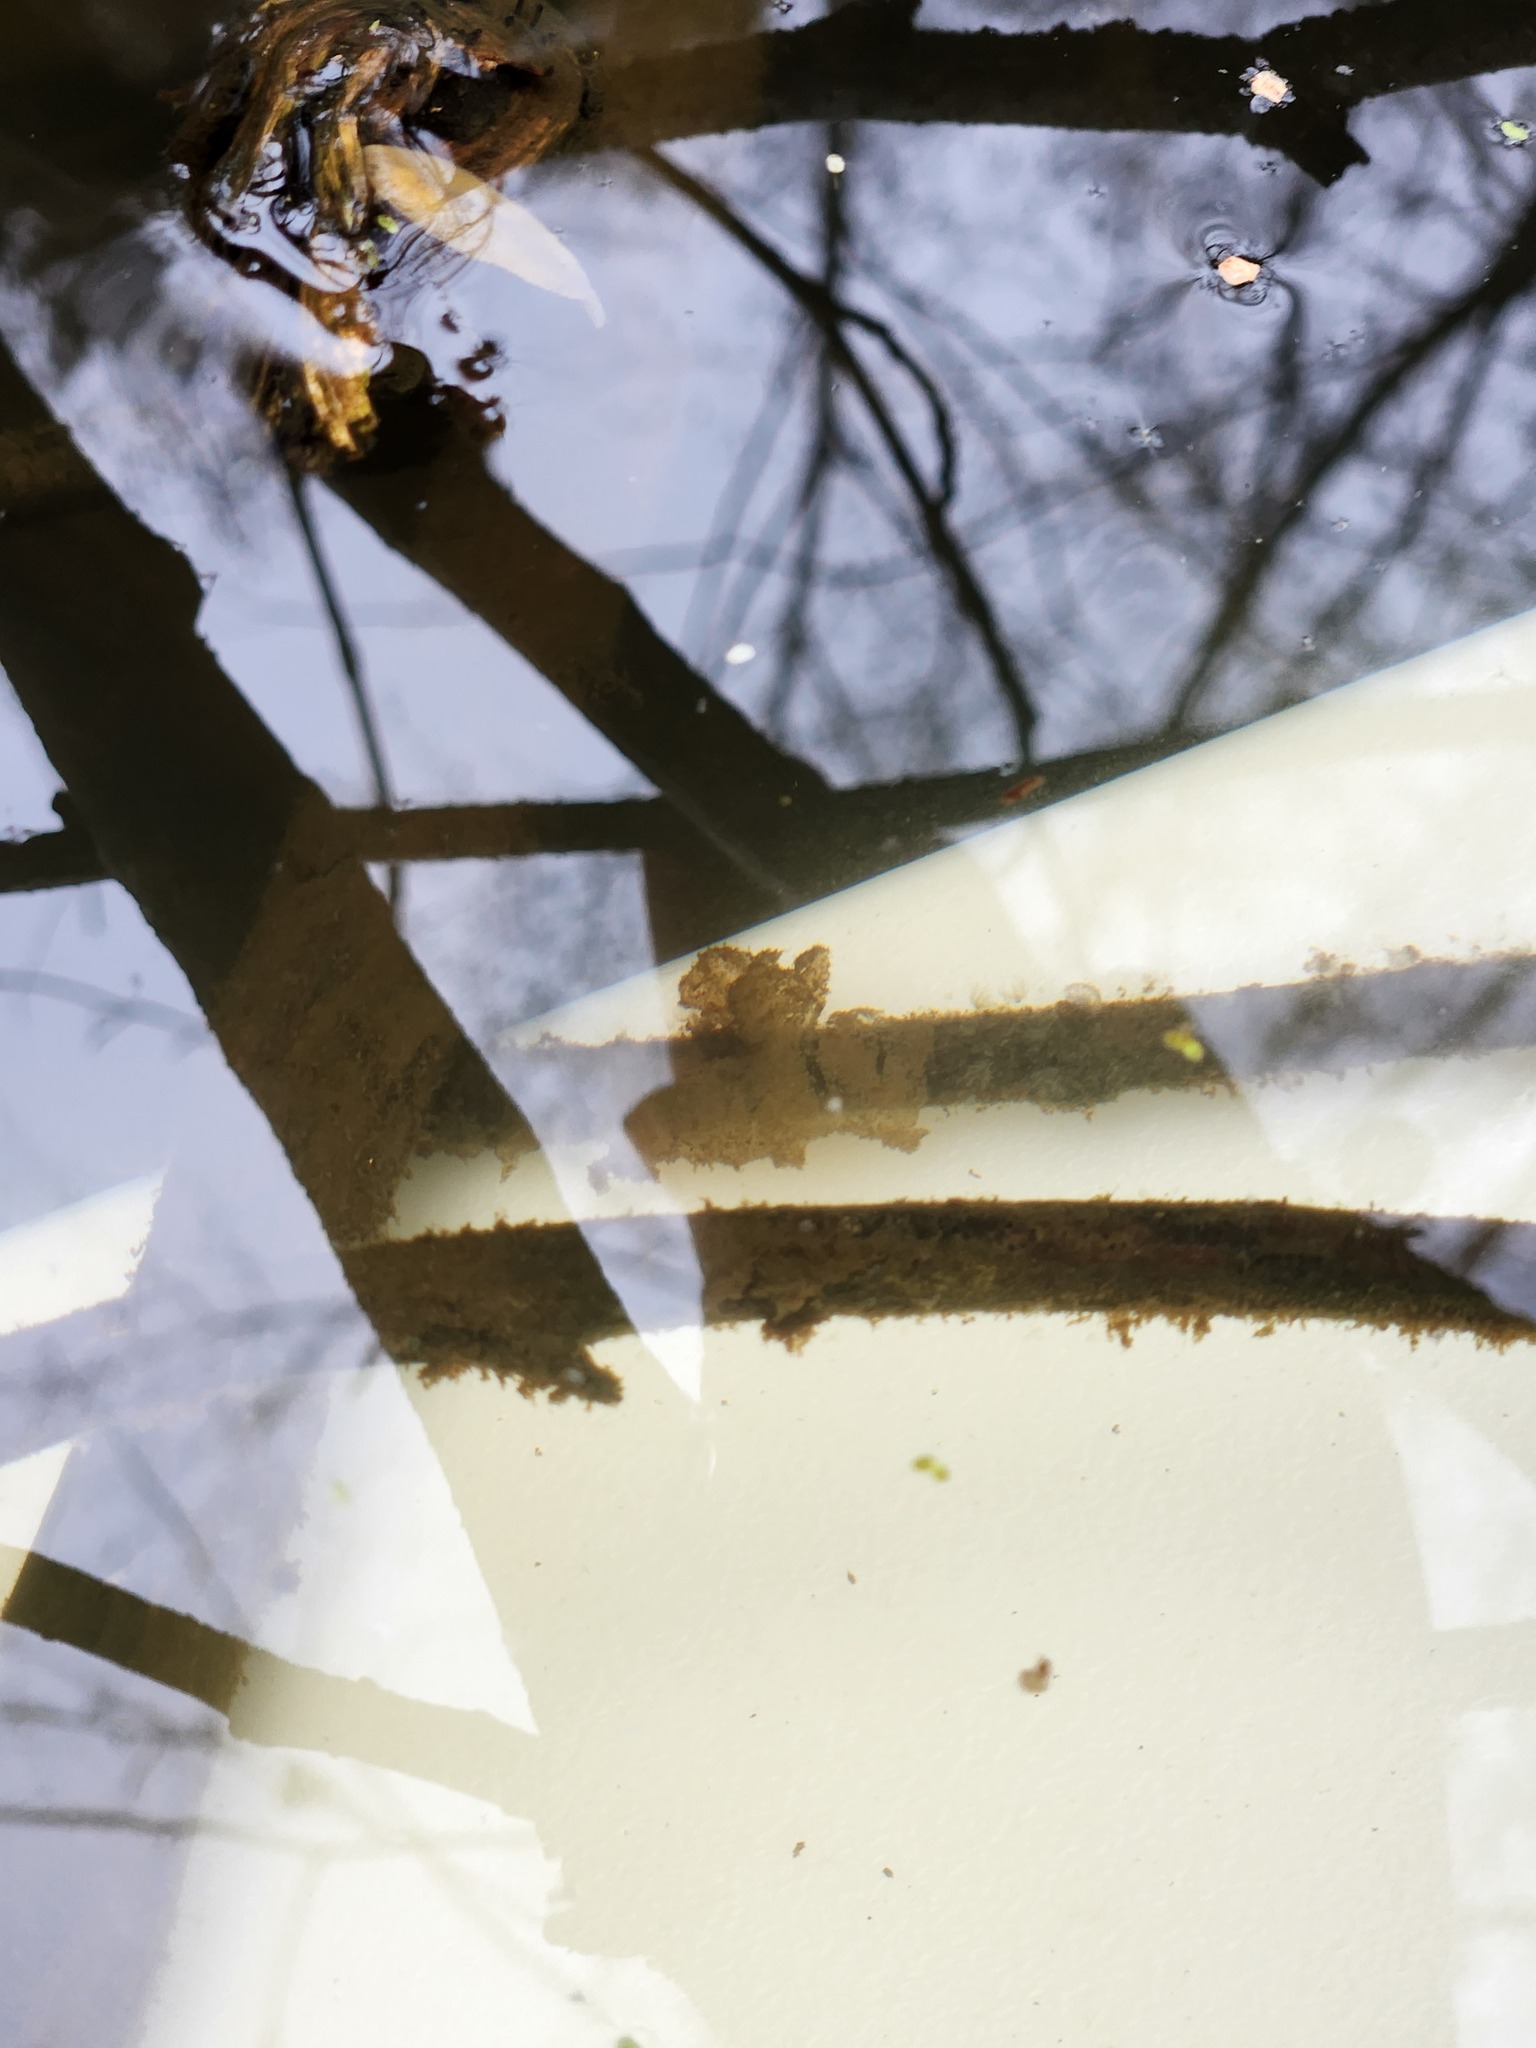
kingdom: Animalia
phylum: Chordata
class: Amphibia
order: Caudata
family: Ambystomatidae
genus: Ambystoma
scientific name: Ambystoma macrodactylum
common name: Long-toed salamander
